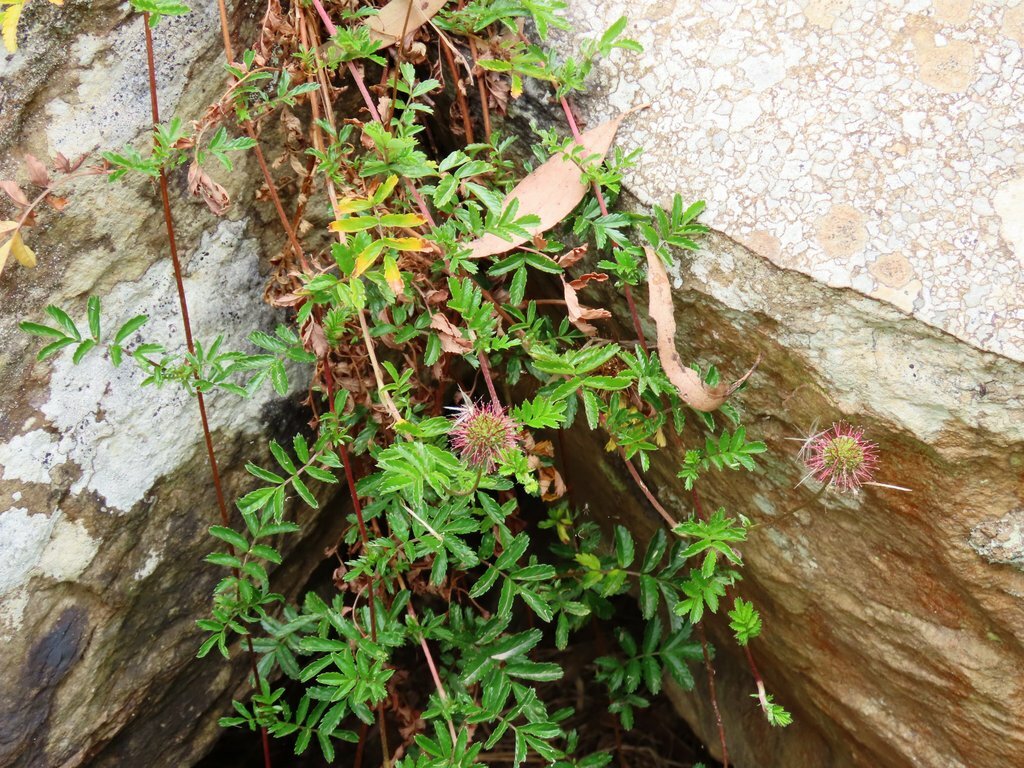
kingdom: Plantae
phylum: Tracheophyta
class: Magnoliopsida
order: Rosales
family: Rosaceae
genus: Acaena
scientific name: Acaena novae-zelandiae
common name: Pirri-pirri-bur
